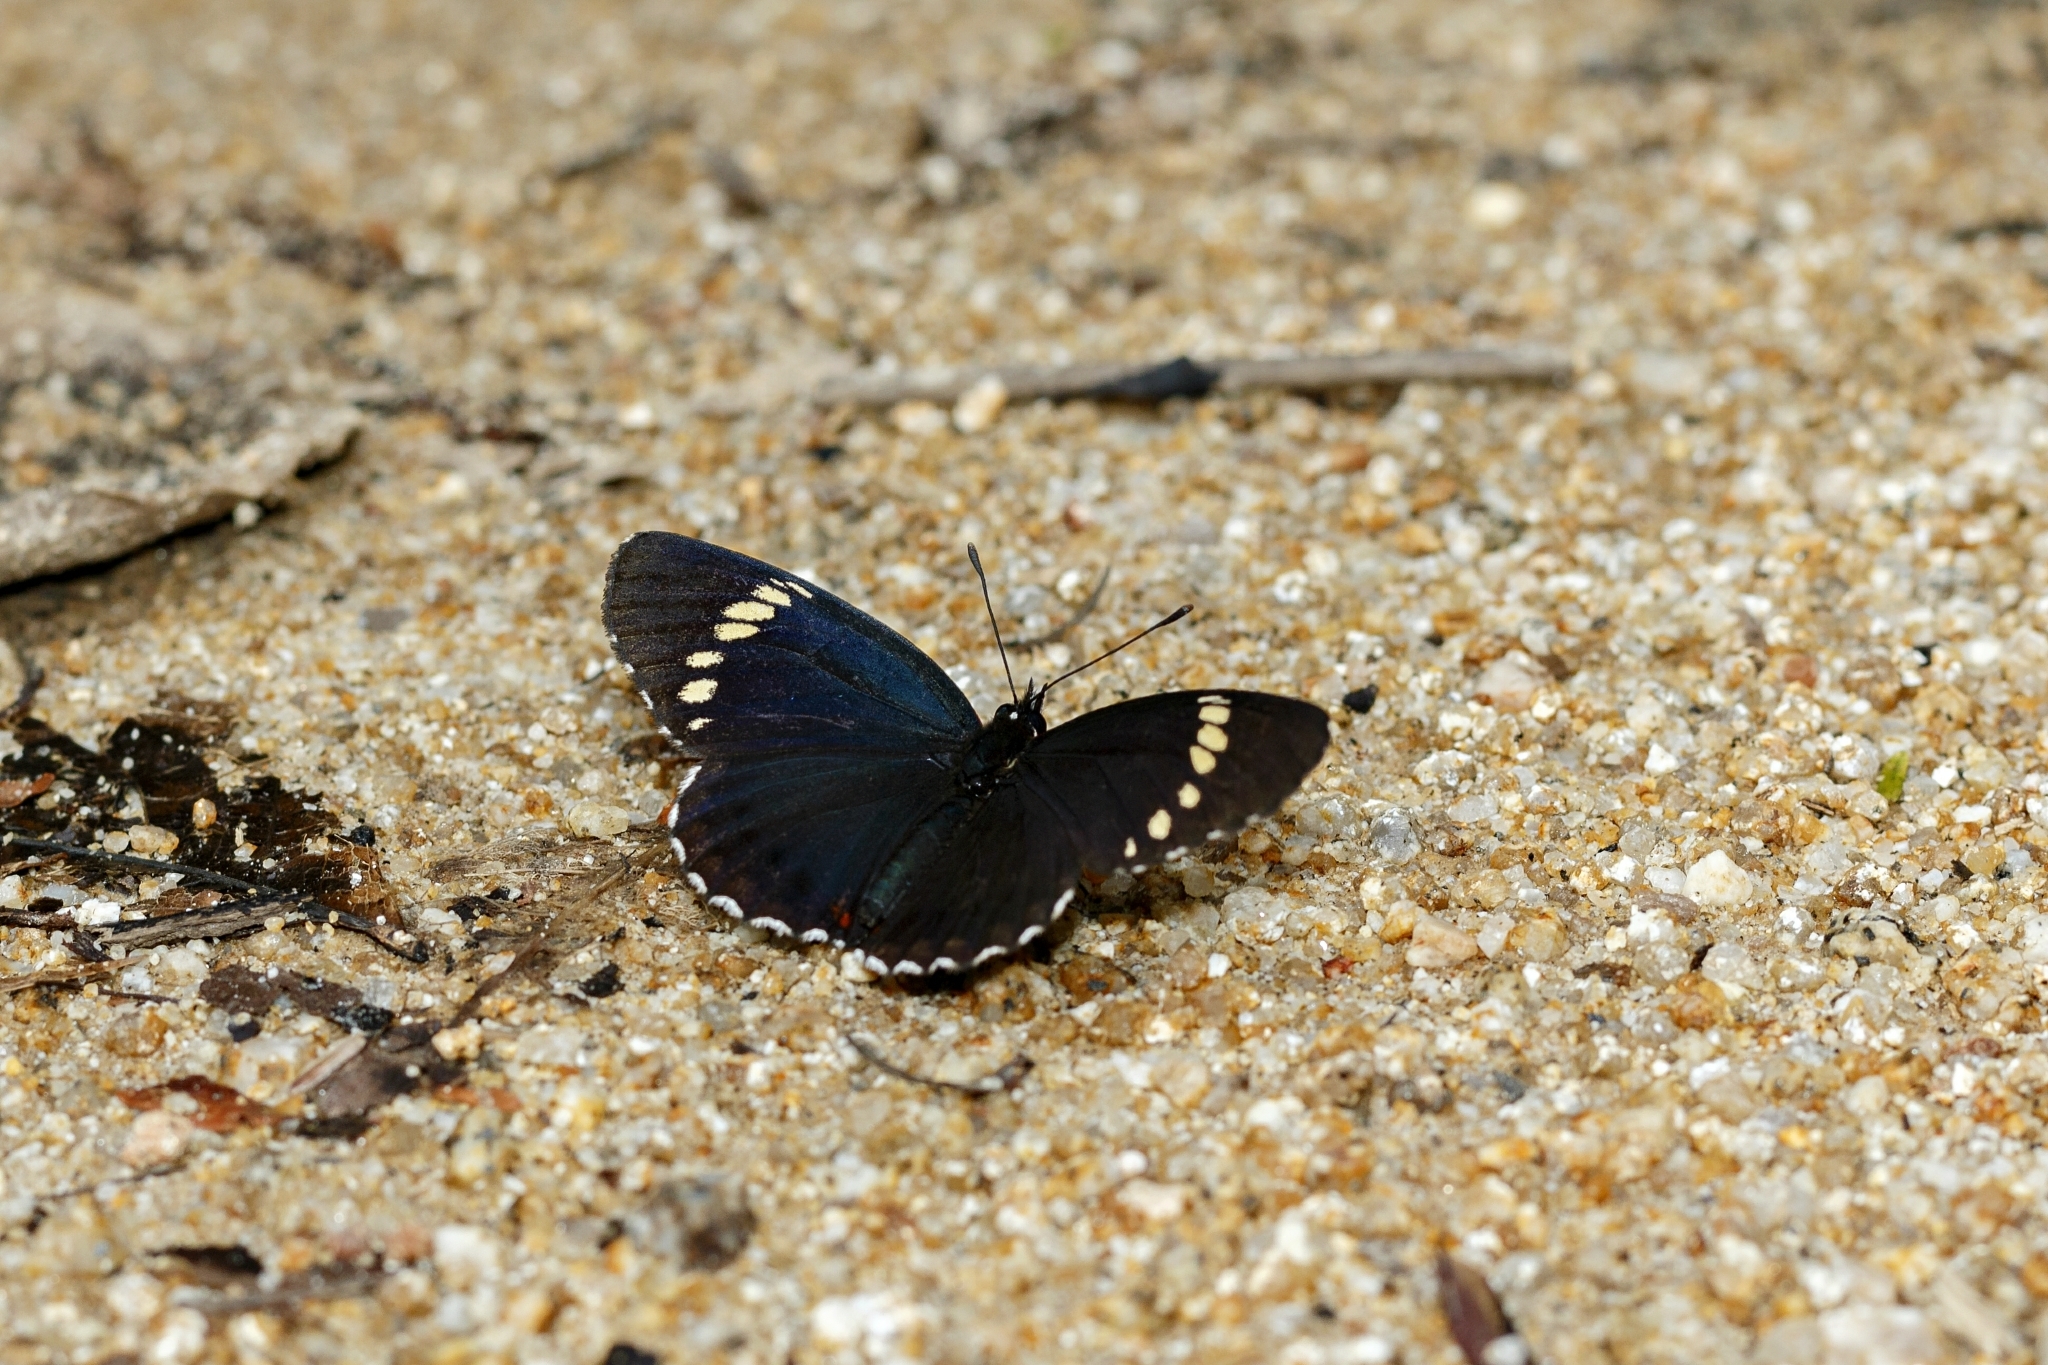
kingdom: Animalia
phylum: Arthropoda
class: Insecta
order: Lepidoptera
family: Nymphalidae
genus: Chlosyne
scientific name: Chlosyne melanarge
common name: Cream-banded checkerspot
